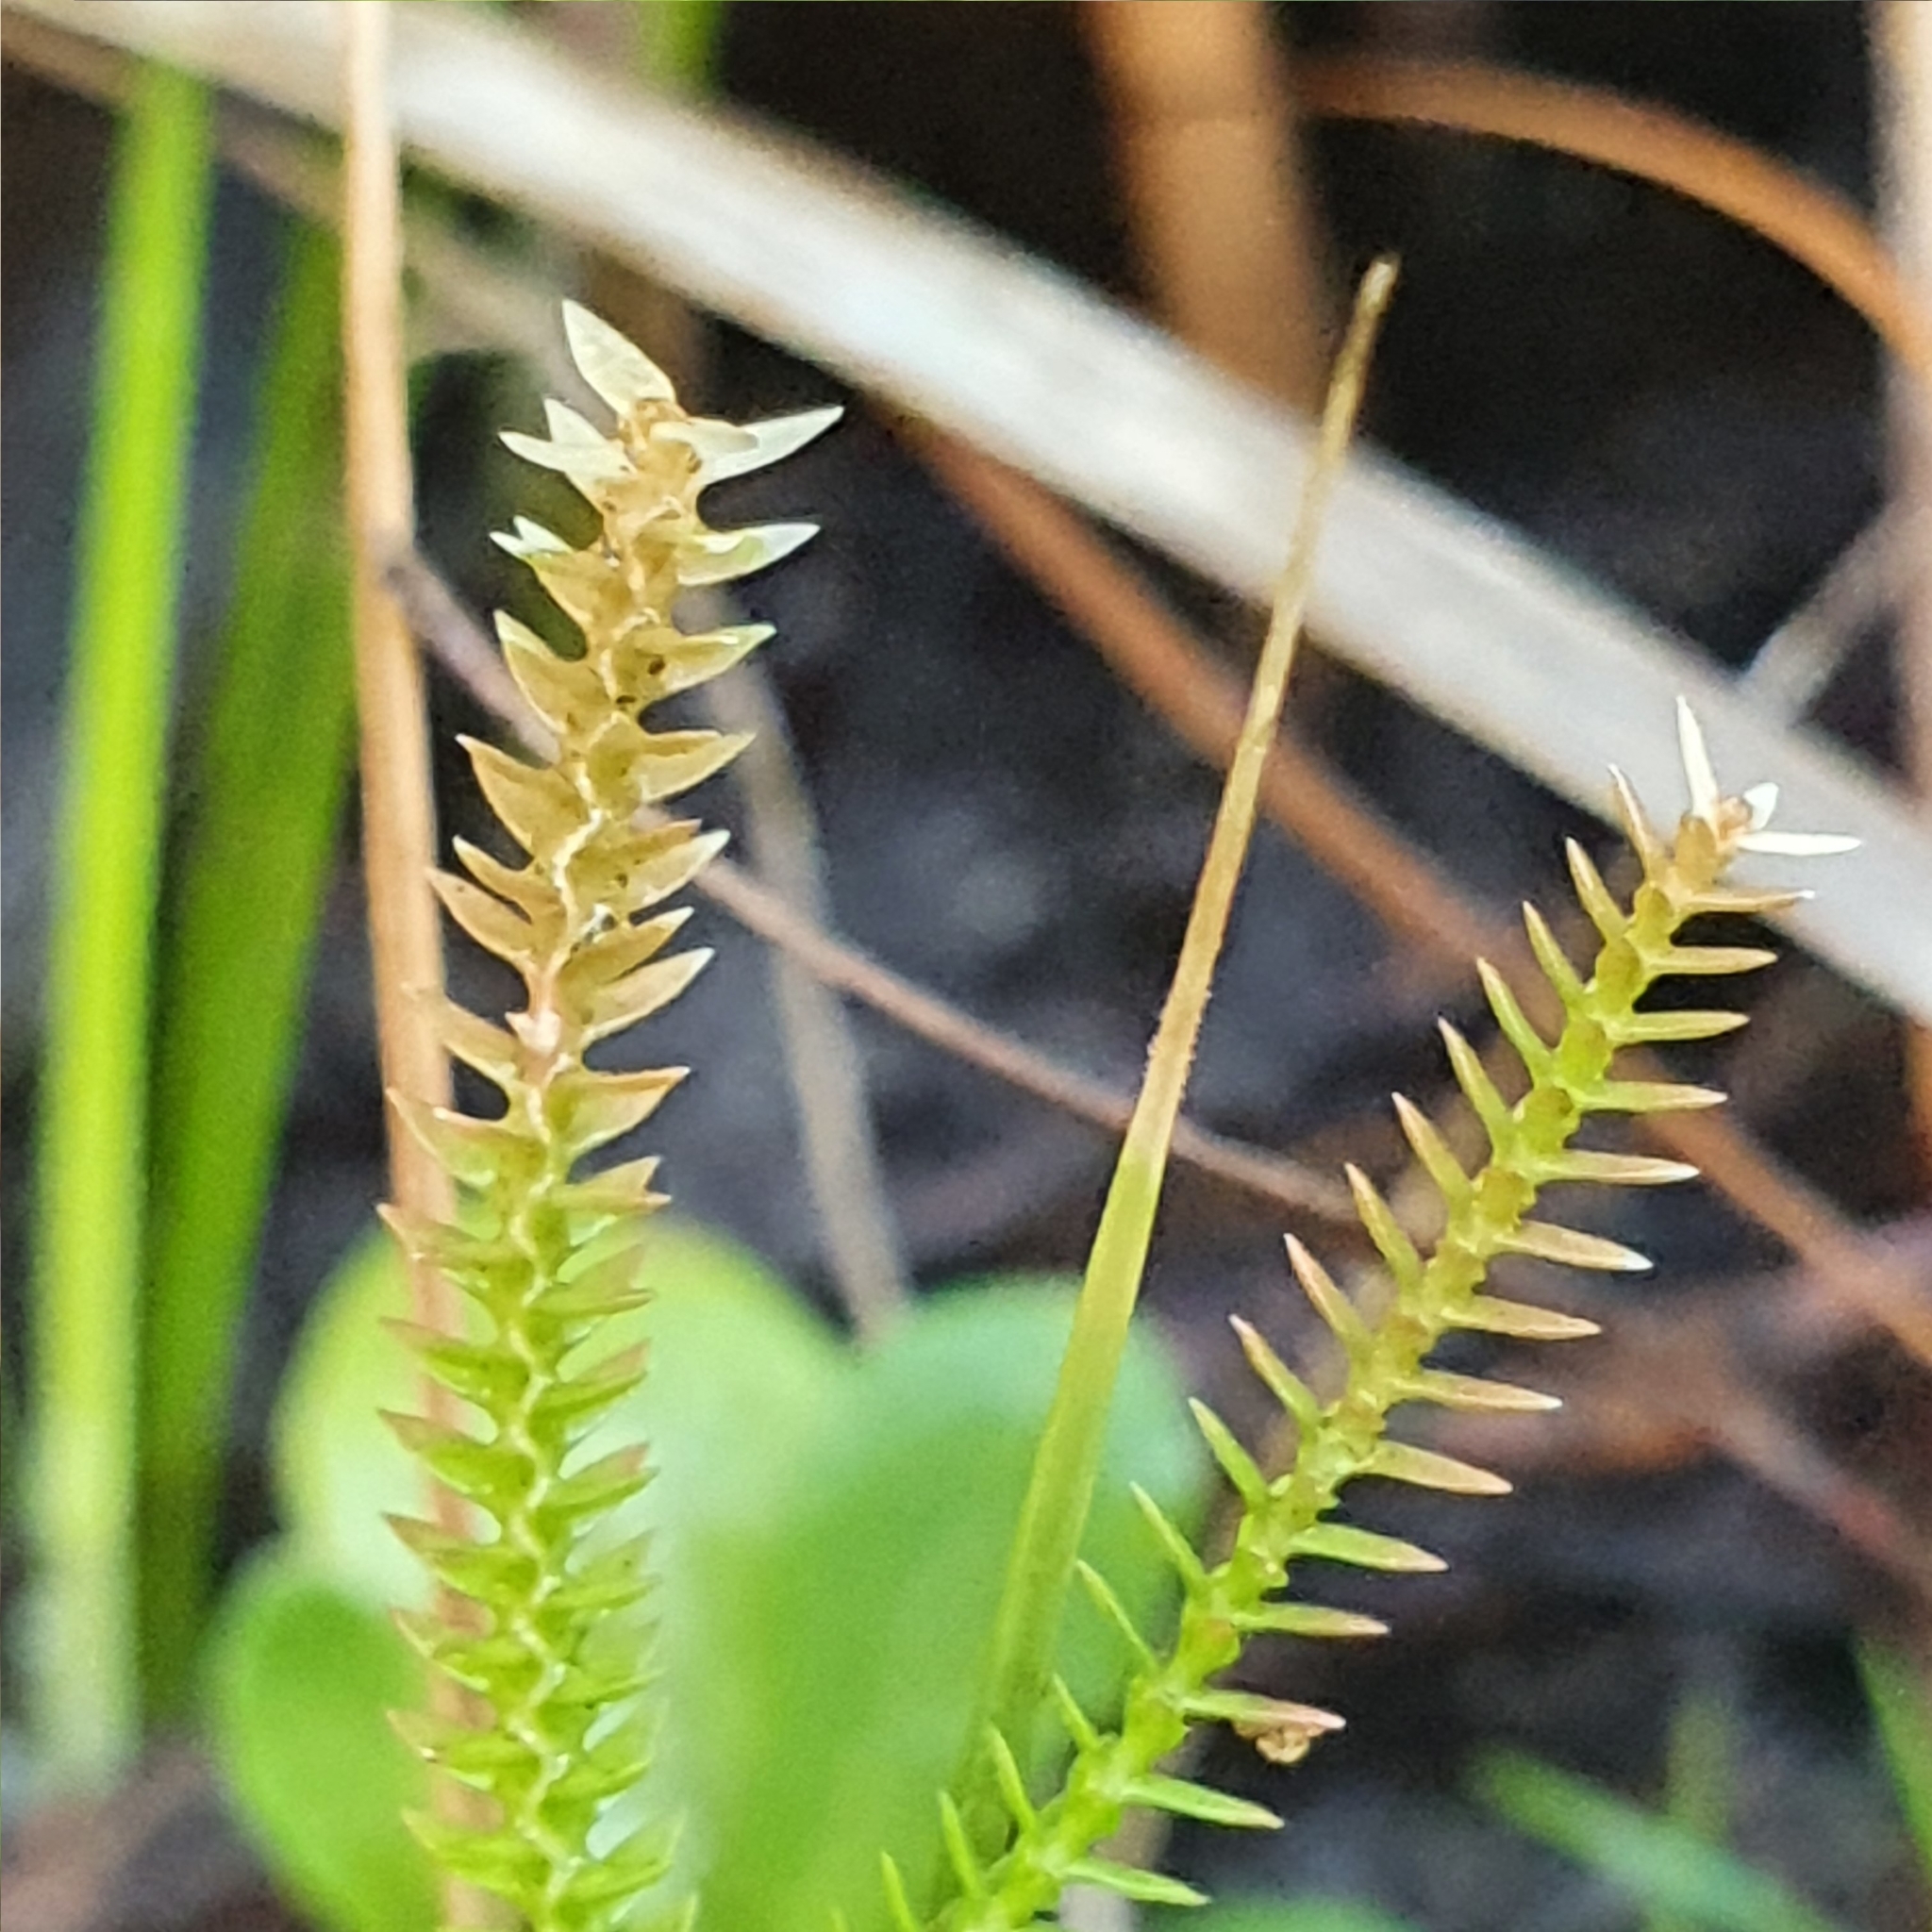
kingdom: Plantae
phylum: Tracheophyta
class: Lycopodiopsida
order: Selaginellales
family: Selaginellaceae
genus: Selaginella
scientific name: Selaginella uliginosa
